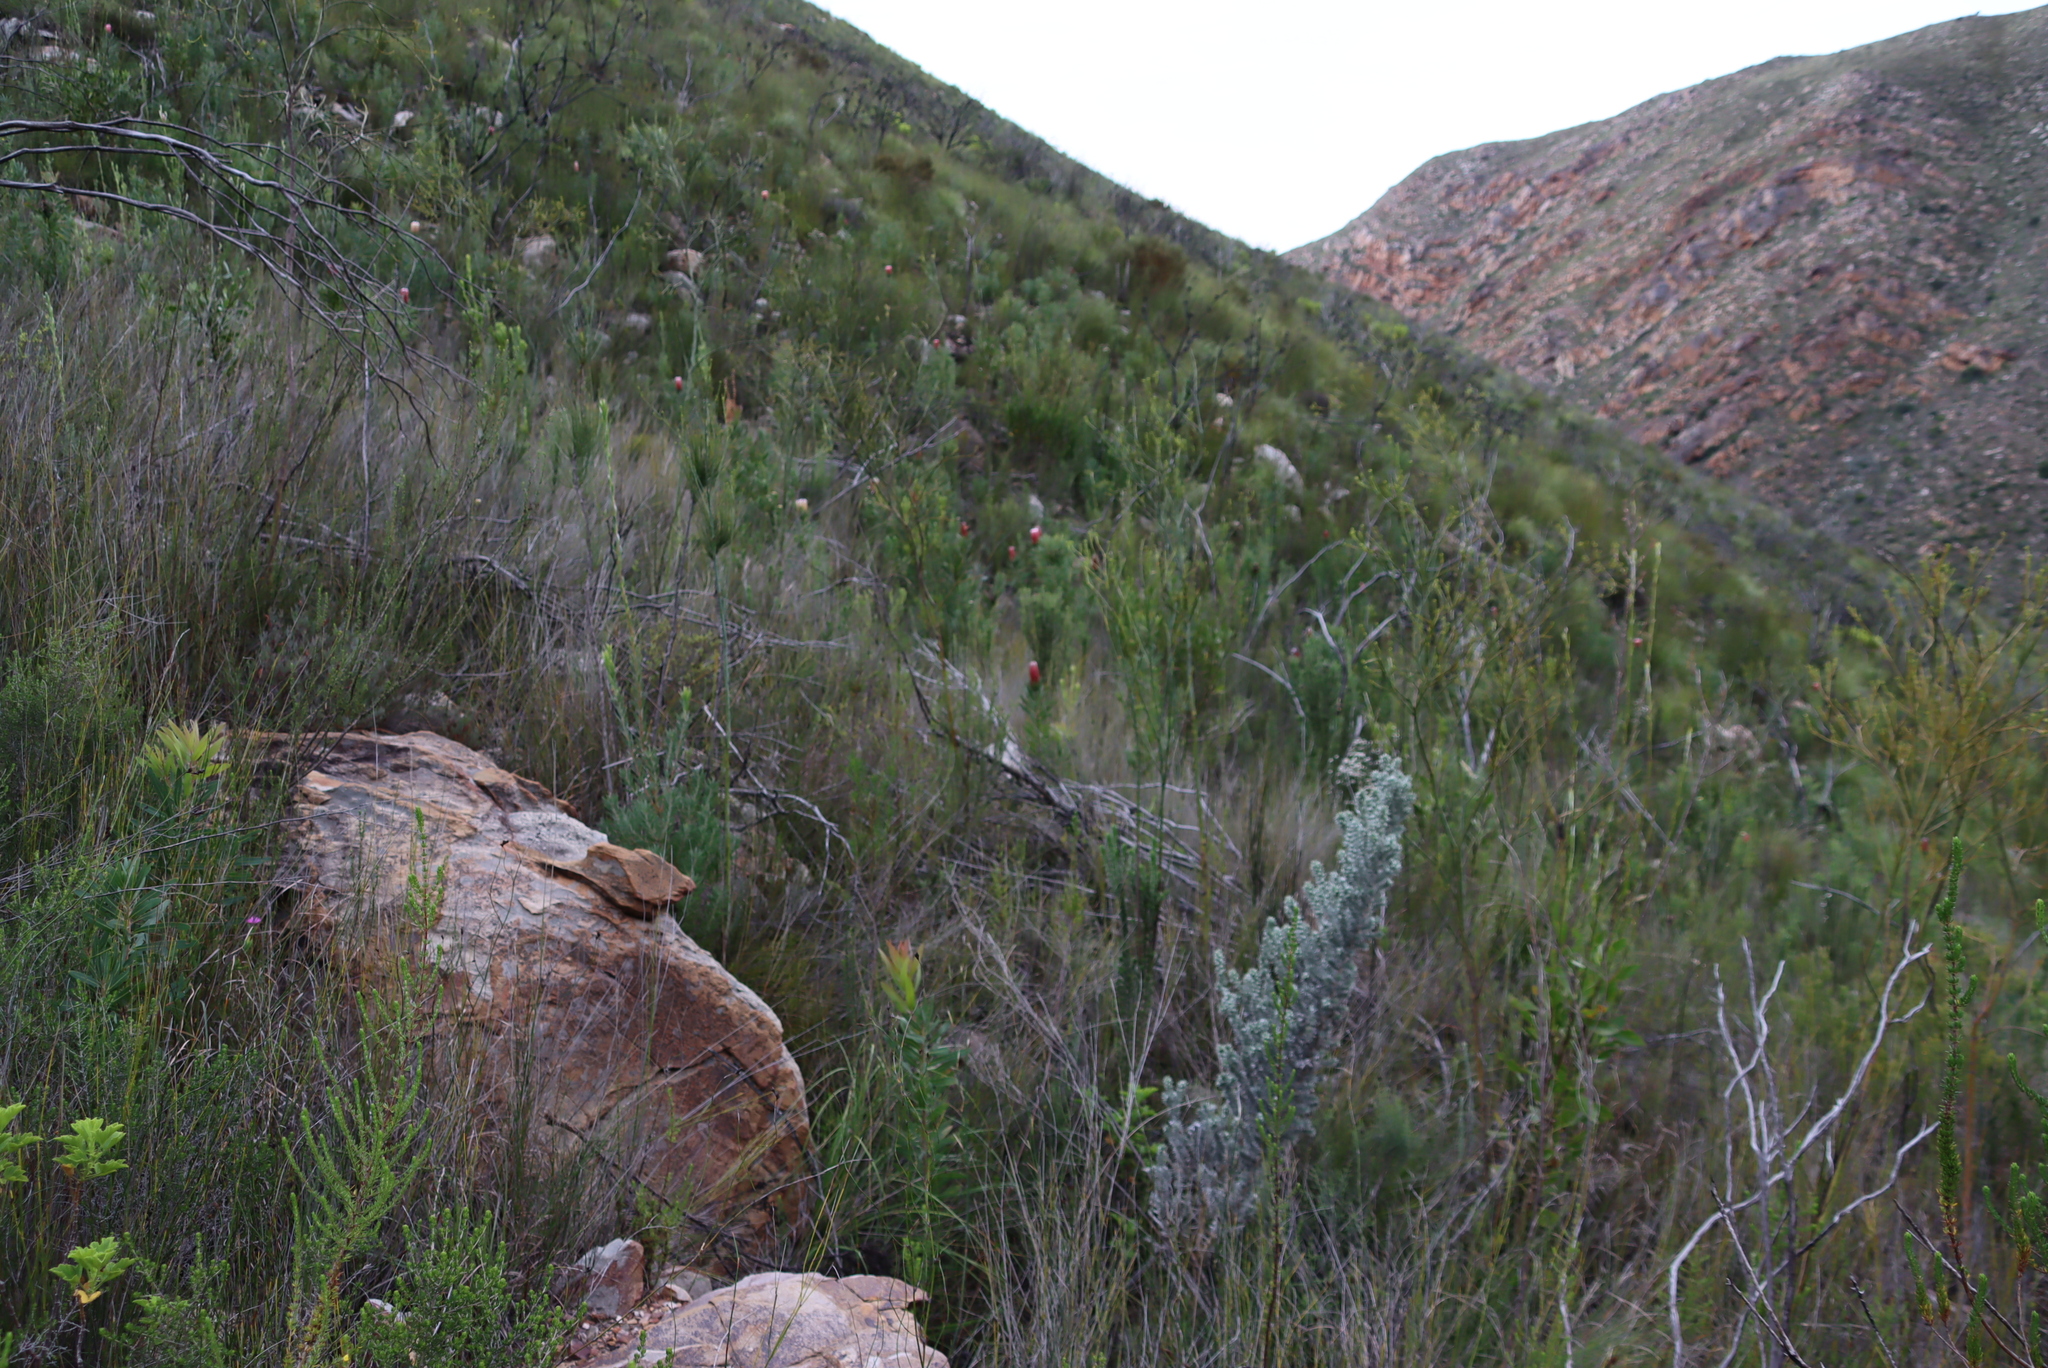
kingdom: Plantae
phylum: Tracheophyta
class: Magnoliopsida
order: Proteales
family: Proteaceae
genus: Leucadendron
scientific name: Leucadendron loeriense
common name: Loerie conebush
